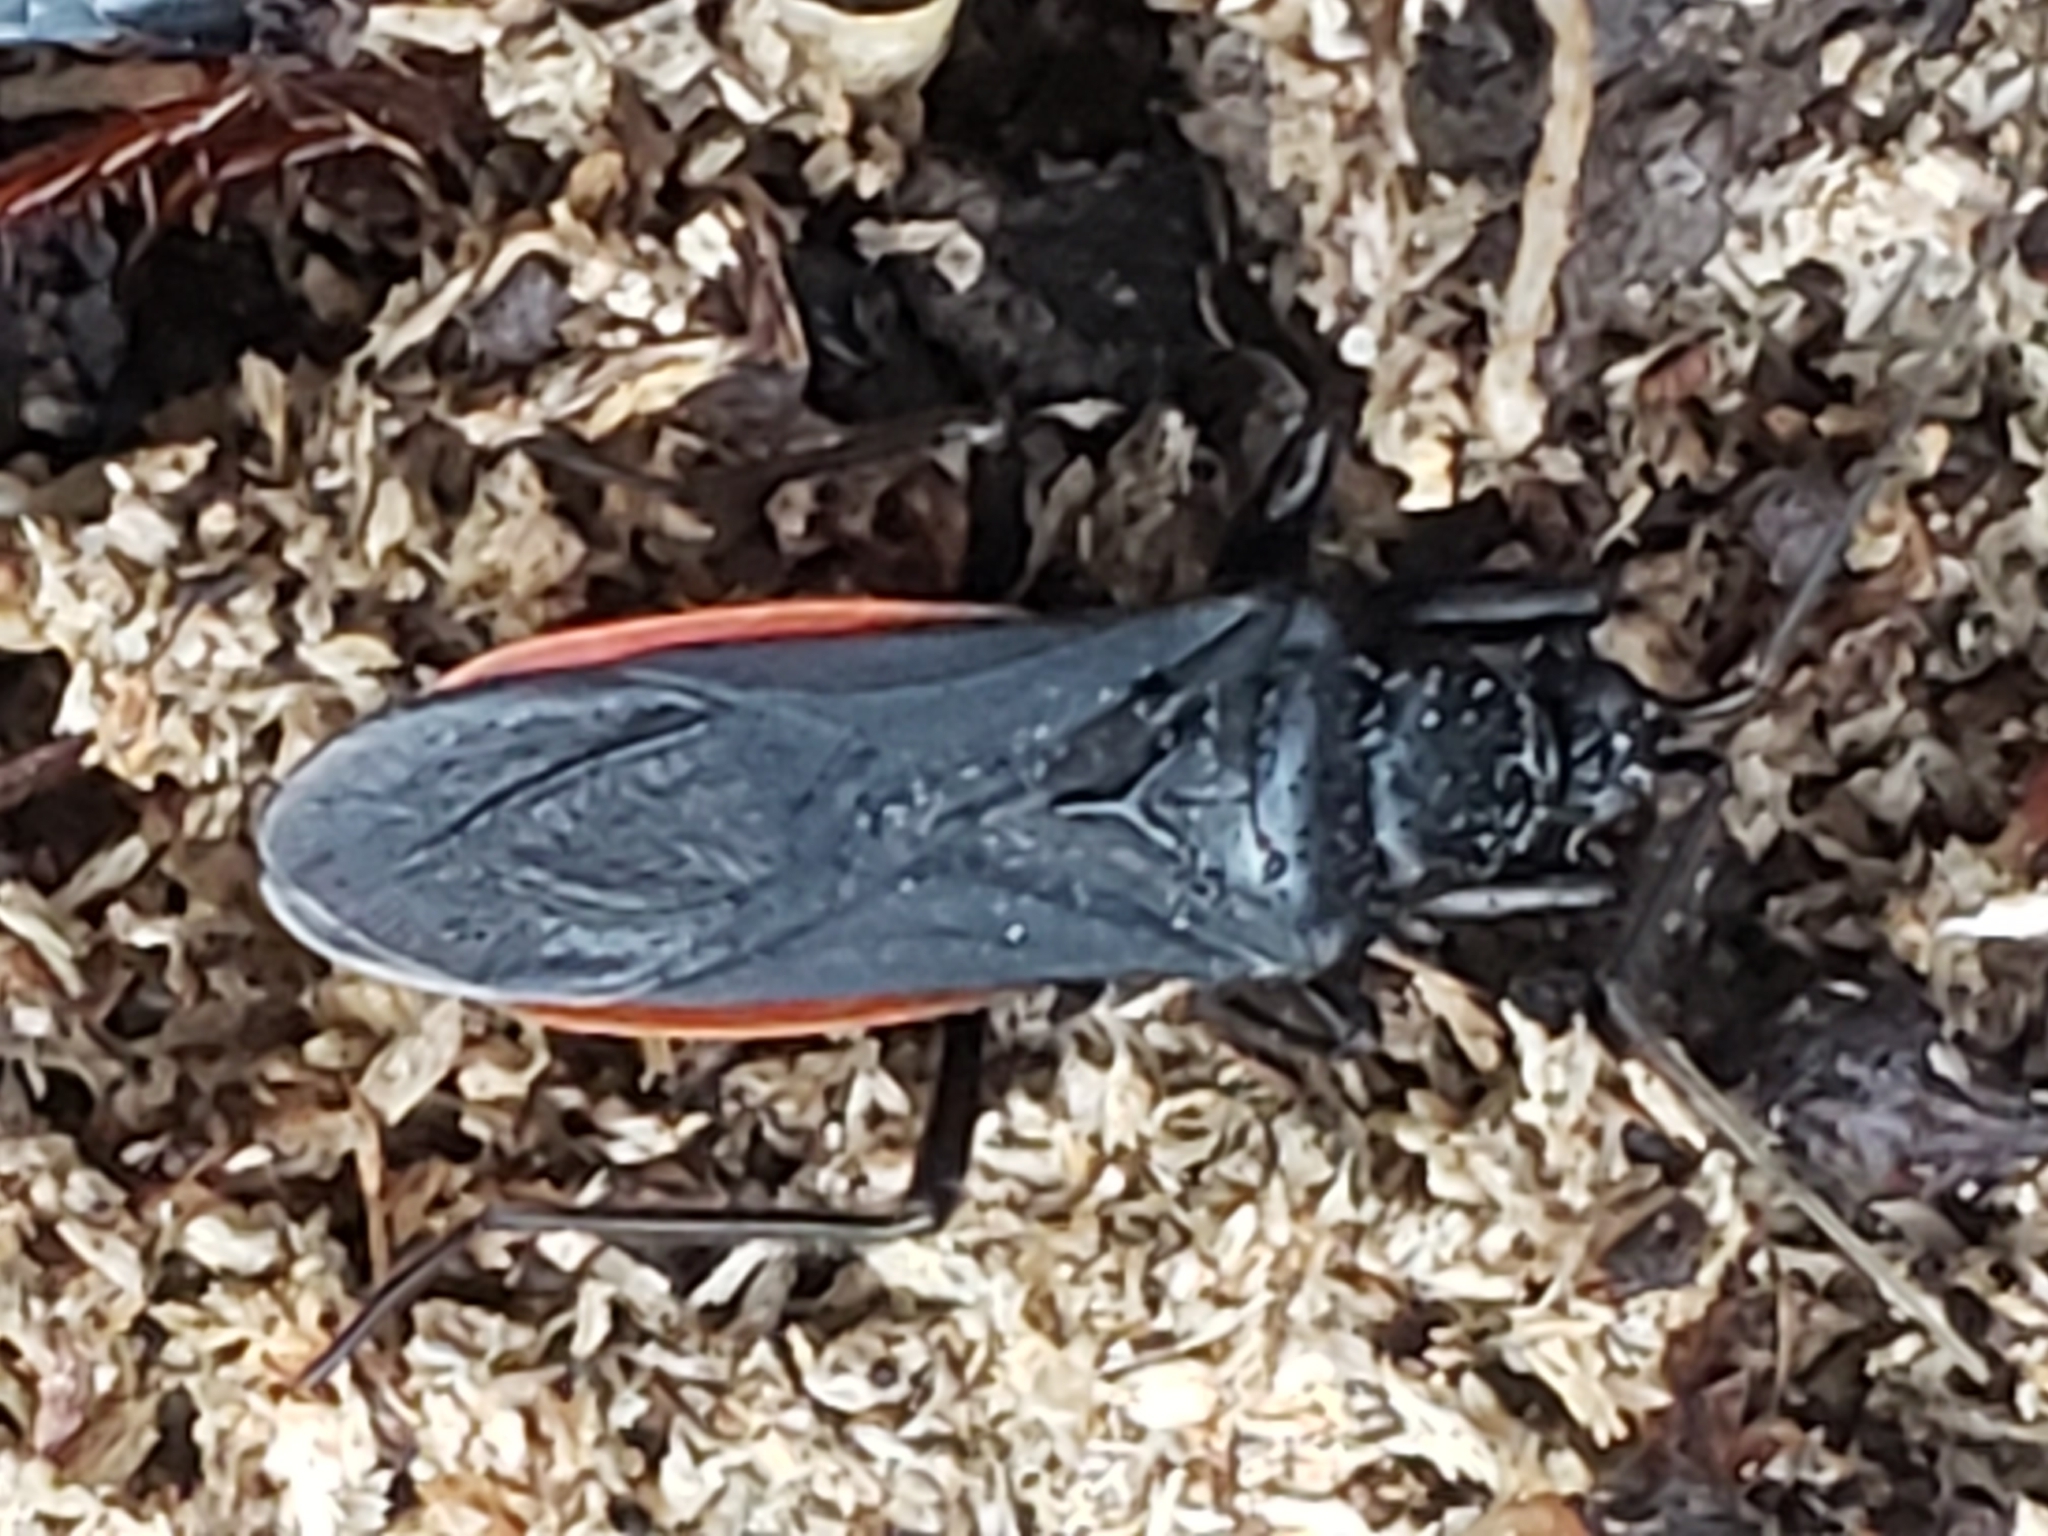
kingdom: Animalia
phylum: Arthropoda
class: Insecta
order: Hemiptera
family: Reduviidae
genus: Melanolestes
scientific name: Melanolestes picipes
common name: Assassin bug
